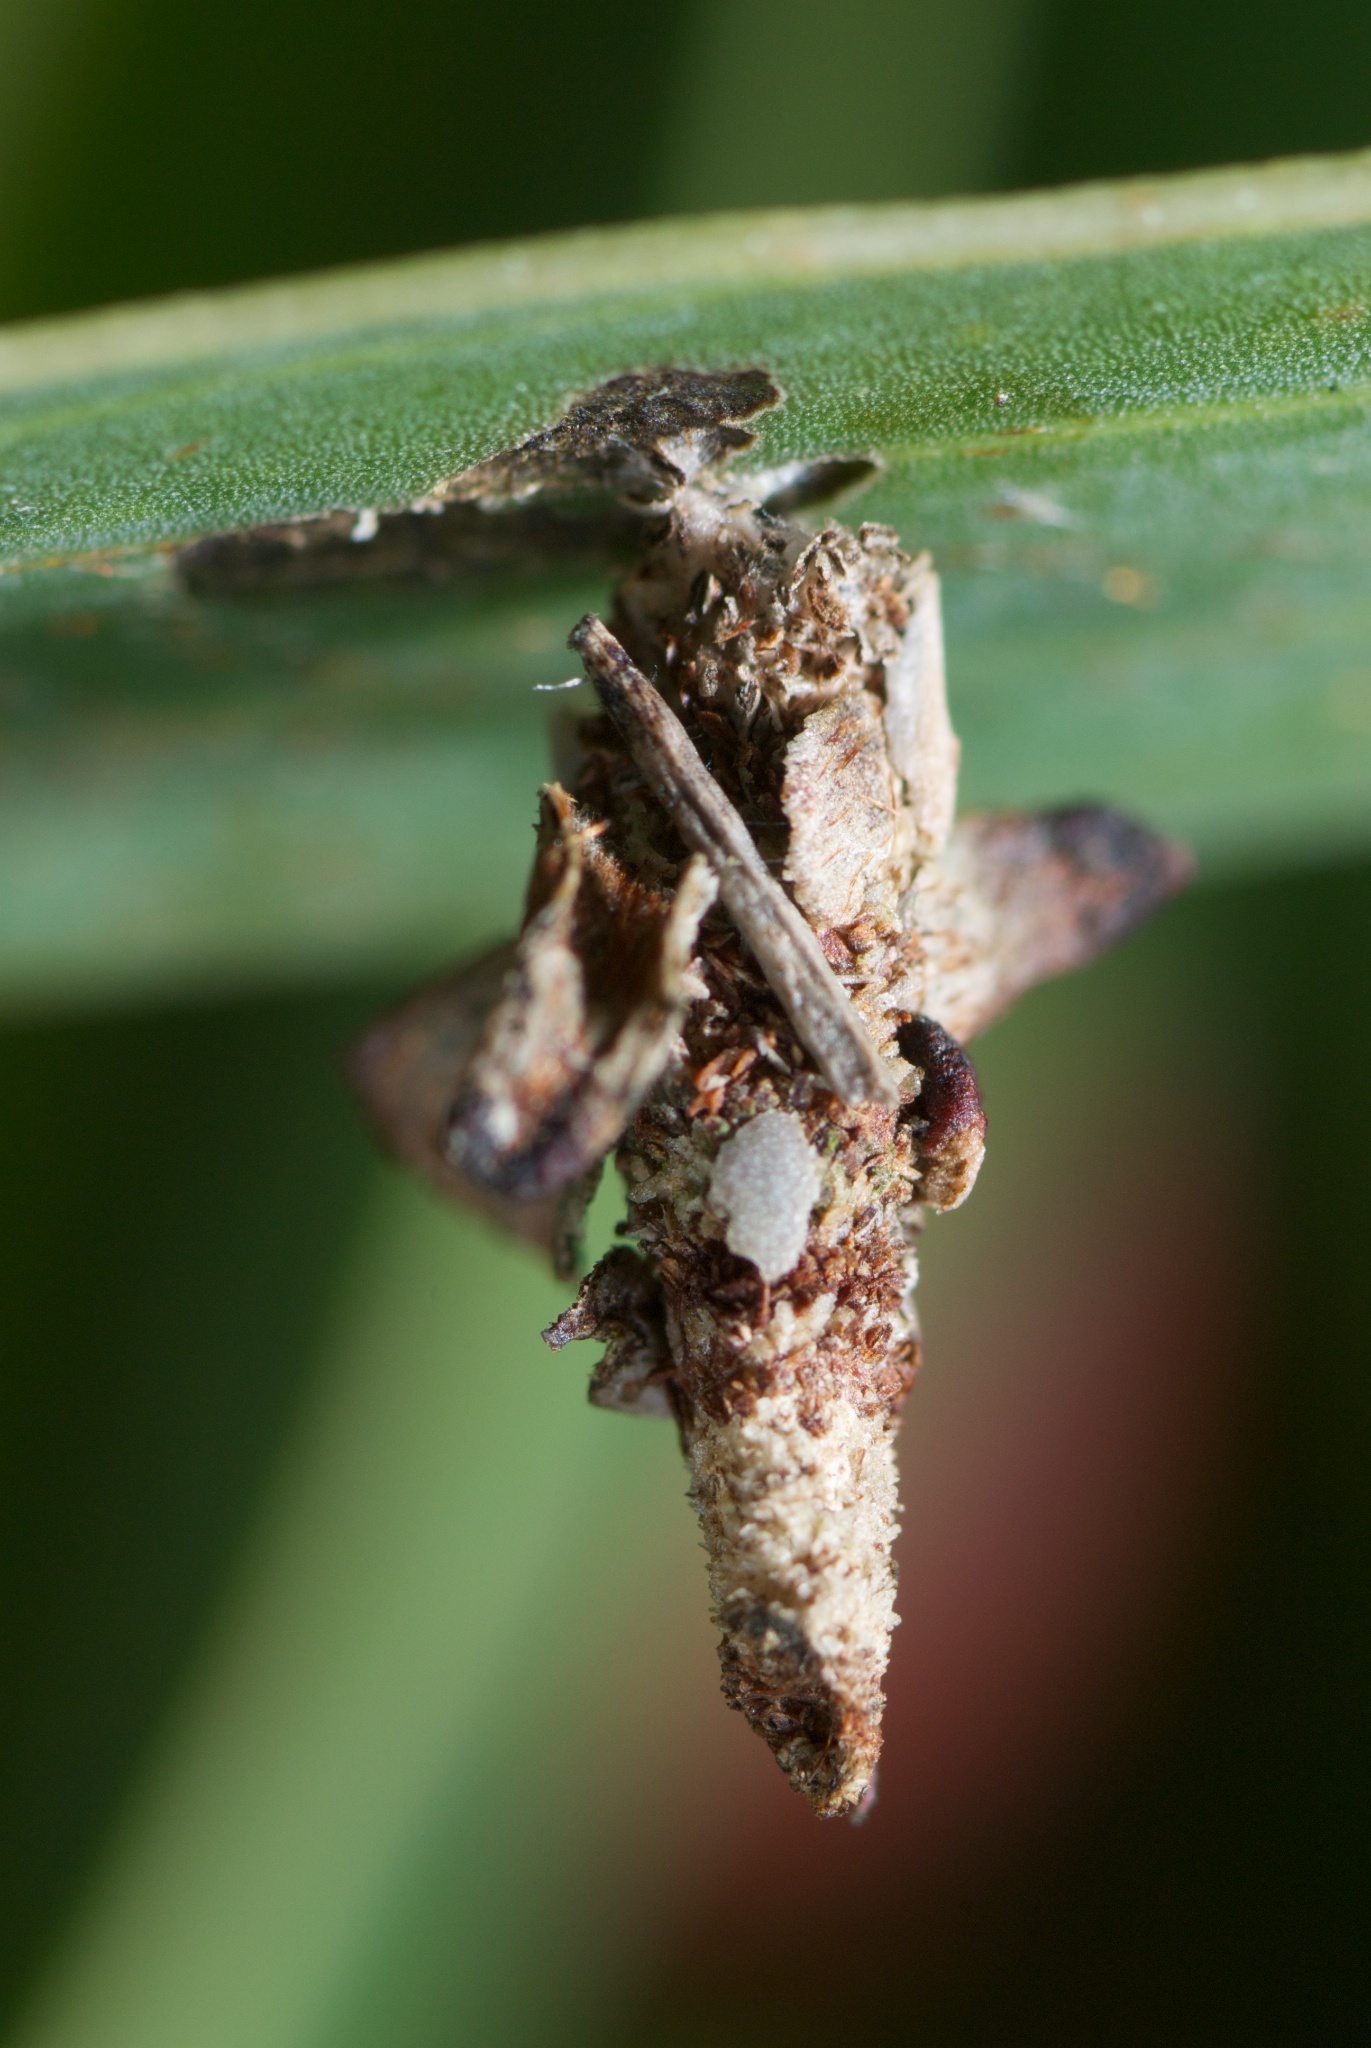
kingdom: Animalia
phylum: Arthropoda
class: Insecta
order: Lepidoptera
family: Psychidae
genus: Liothula
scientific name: Liothula omnivora
